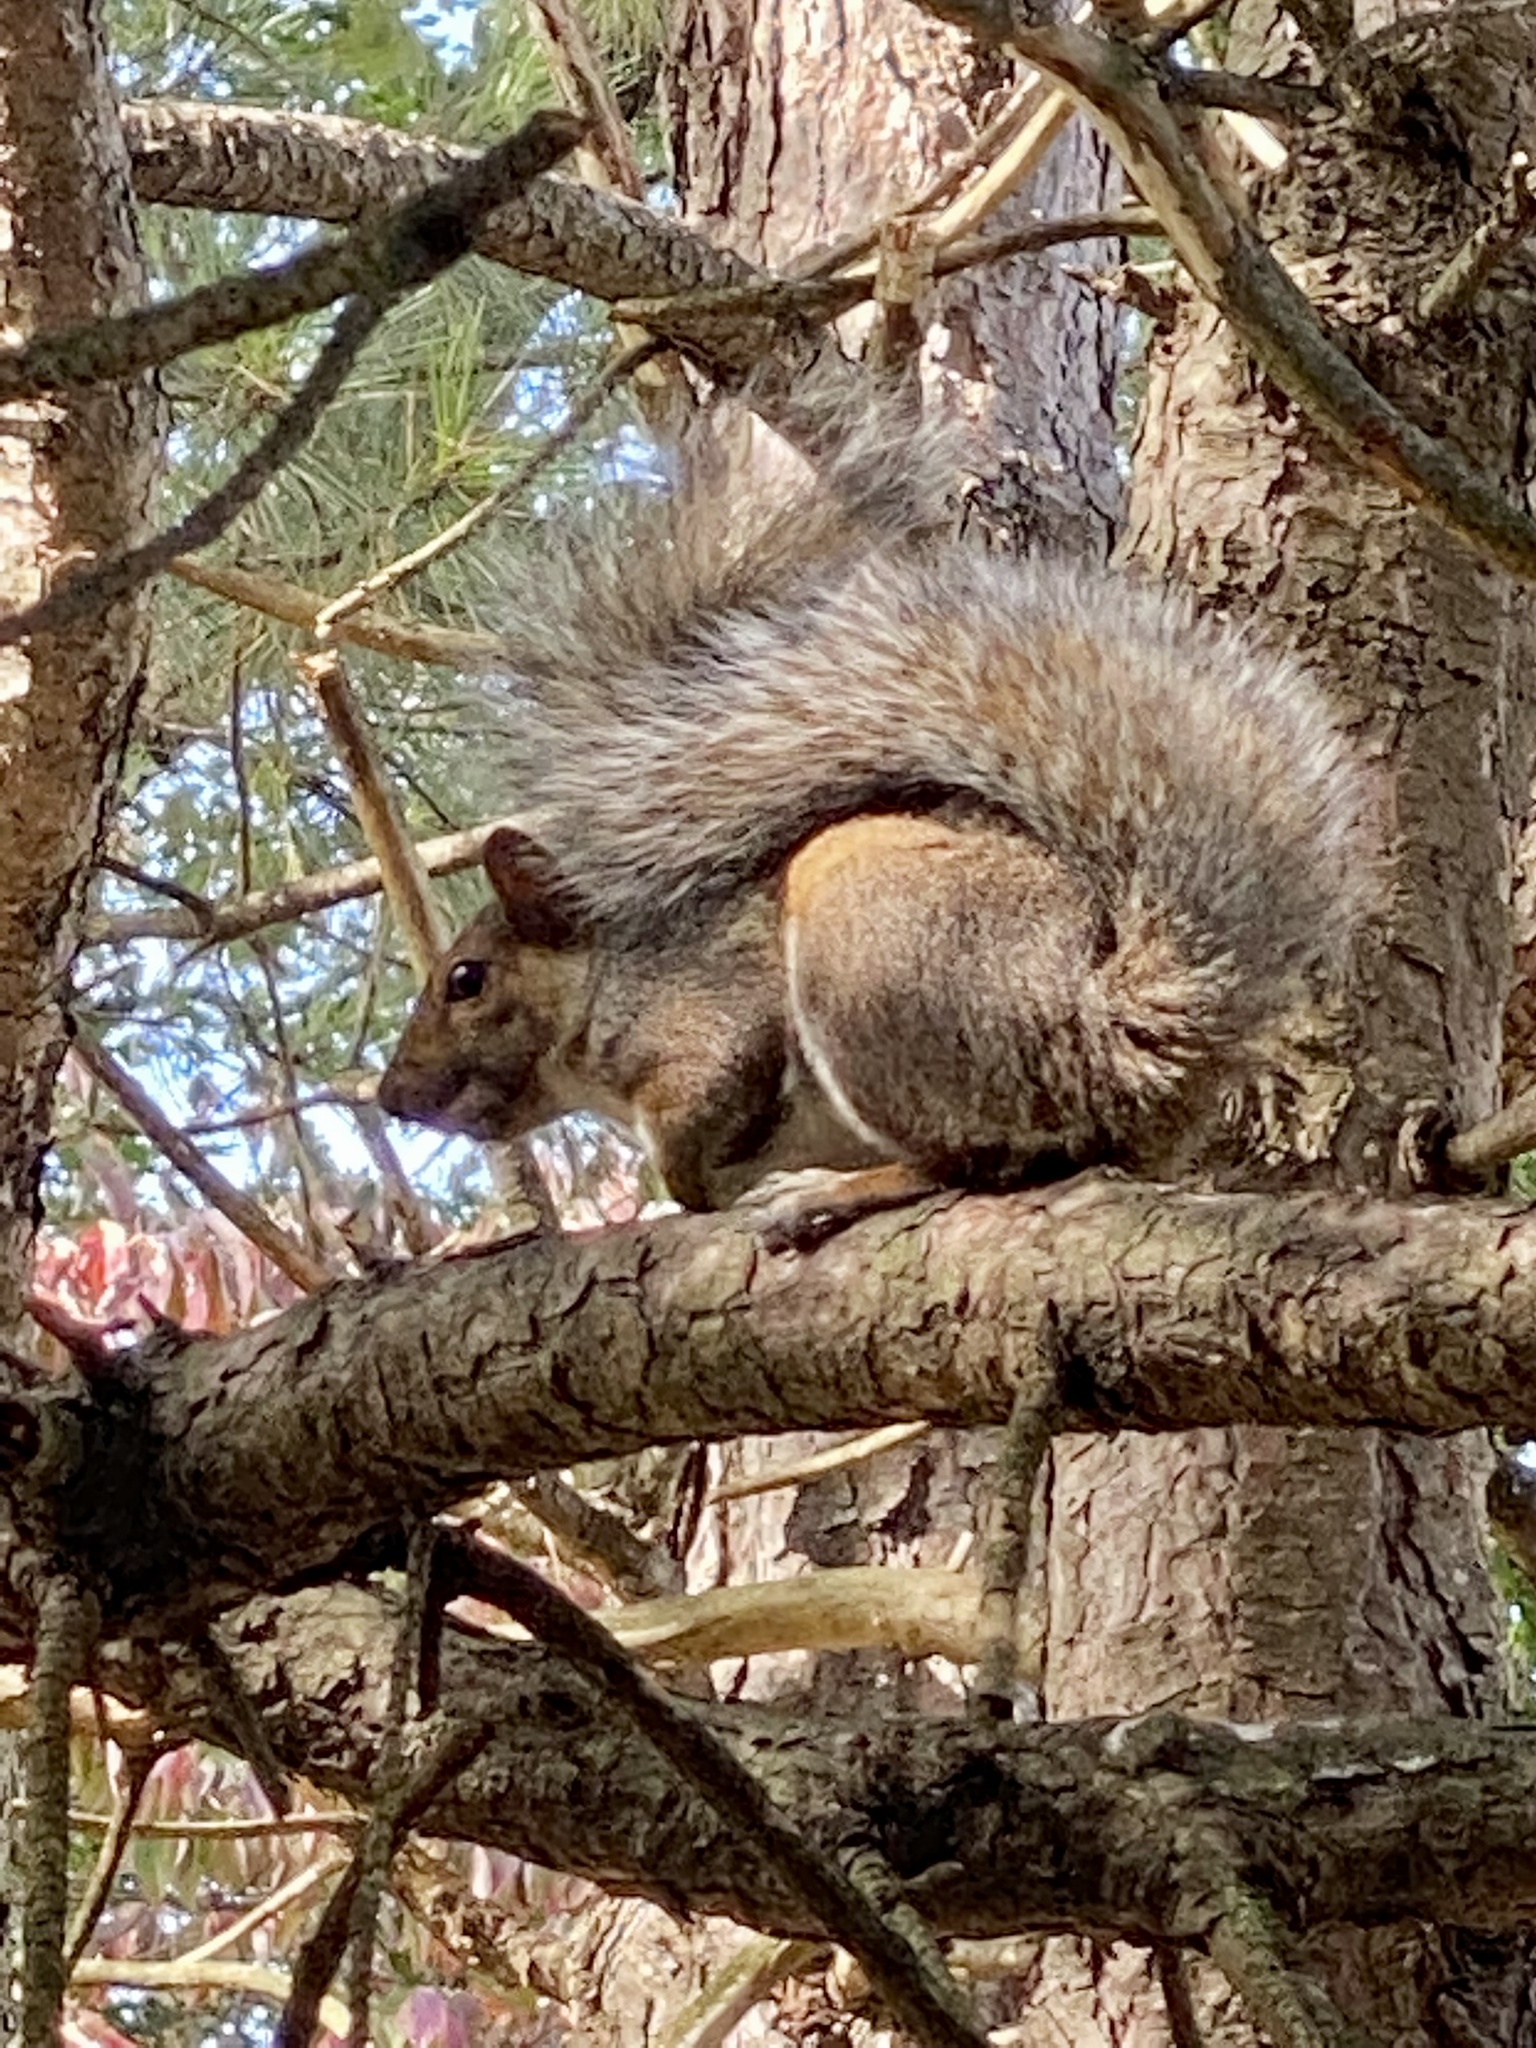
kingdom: Animalia
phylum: Chordata
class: Mammalia
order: Rodentia
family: Sciuridae
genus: Sciurus
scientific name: Sciurus carolinensis
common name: Eastern gray squirrel
